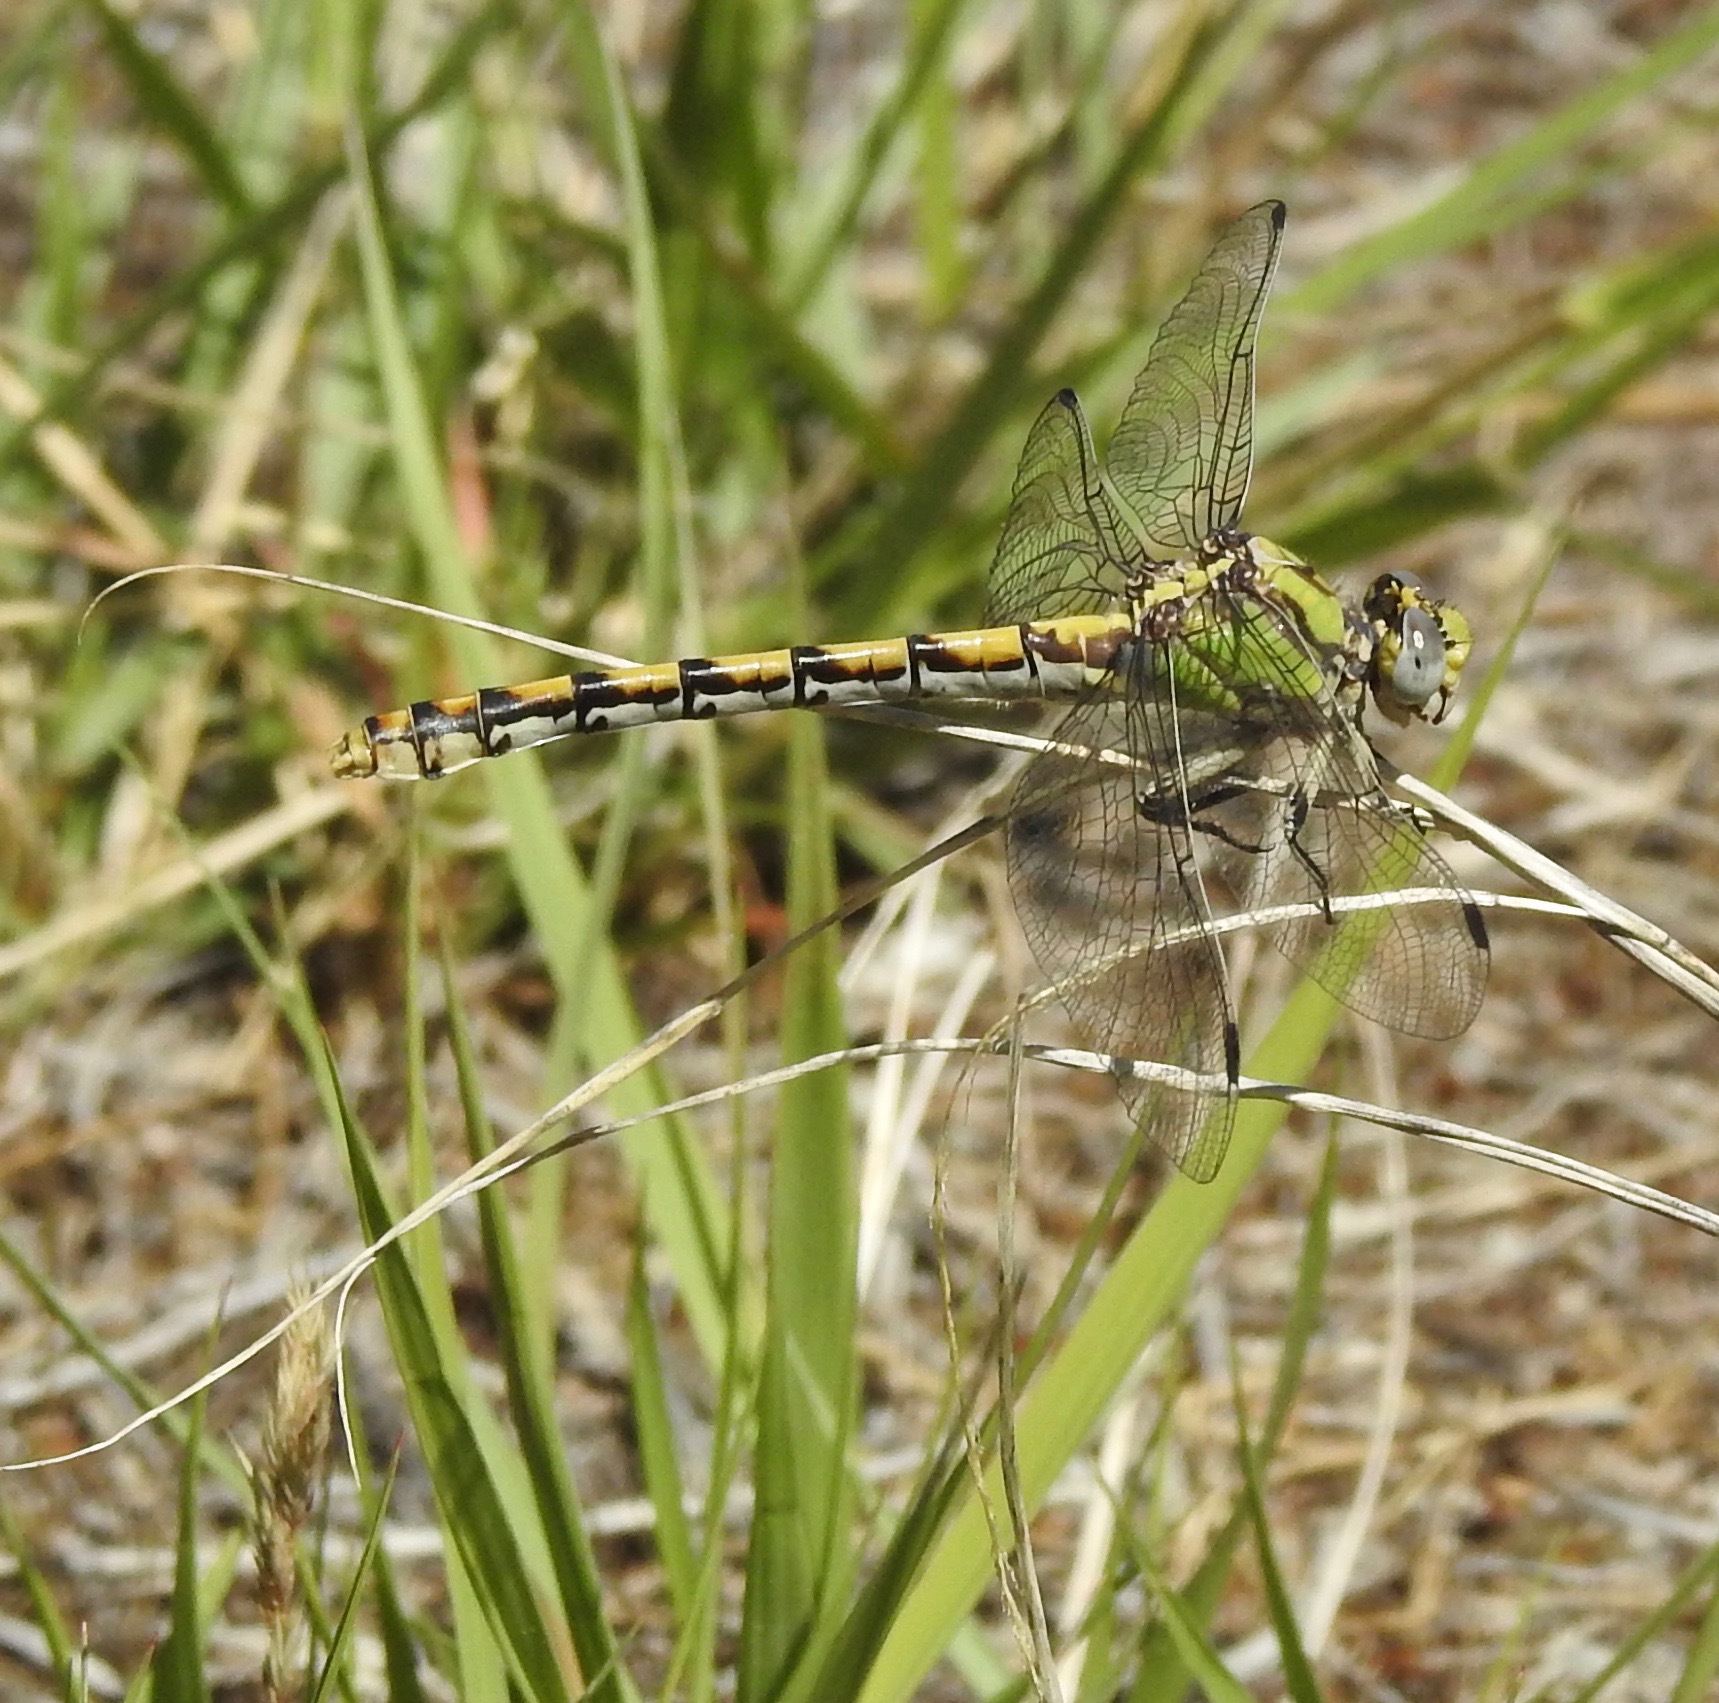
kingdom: Animalia
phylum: Arthropoda
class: Insecta
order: Odonata
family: Gomphidae
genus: Ophiogomphus
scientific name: Ophiogomphus occidentis
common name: Sinuous snaketail
